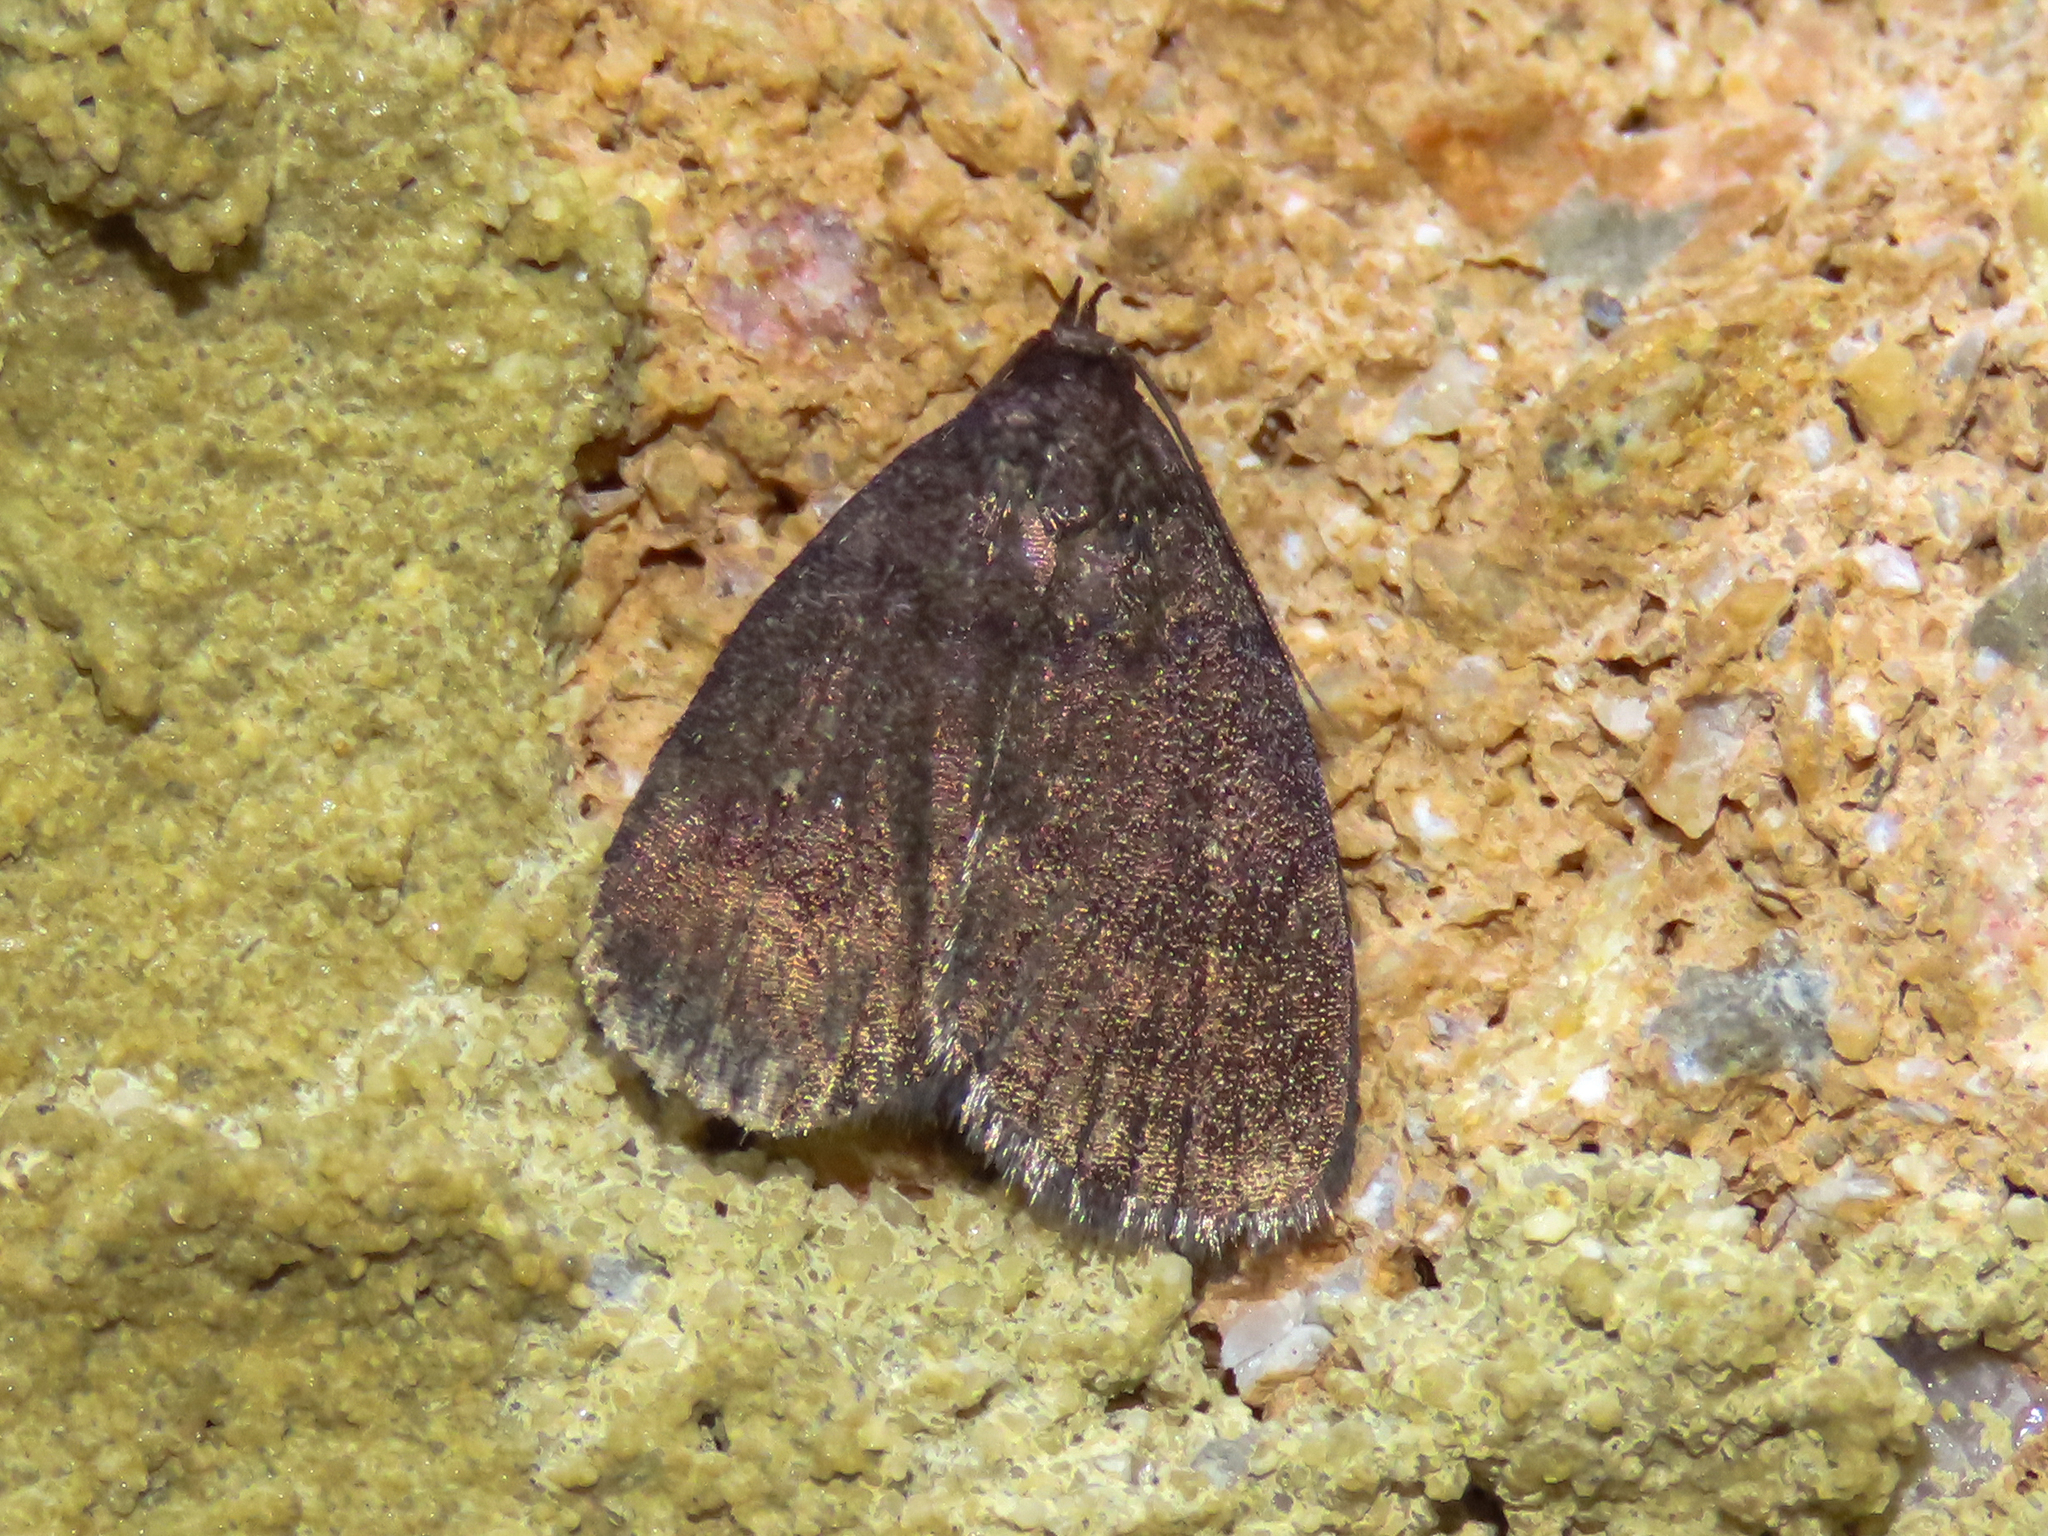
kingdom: Animalia
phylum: Arthropoda
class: Insecta
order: Lepidoptera
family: Erebidae
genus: Idia
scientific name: Idia rotundalis
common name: Rotund idia moth
